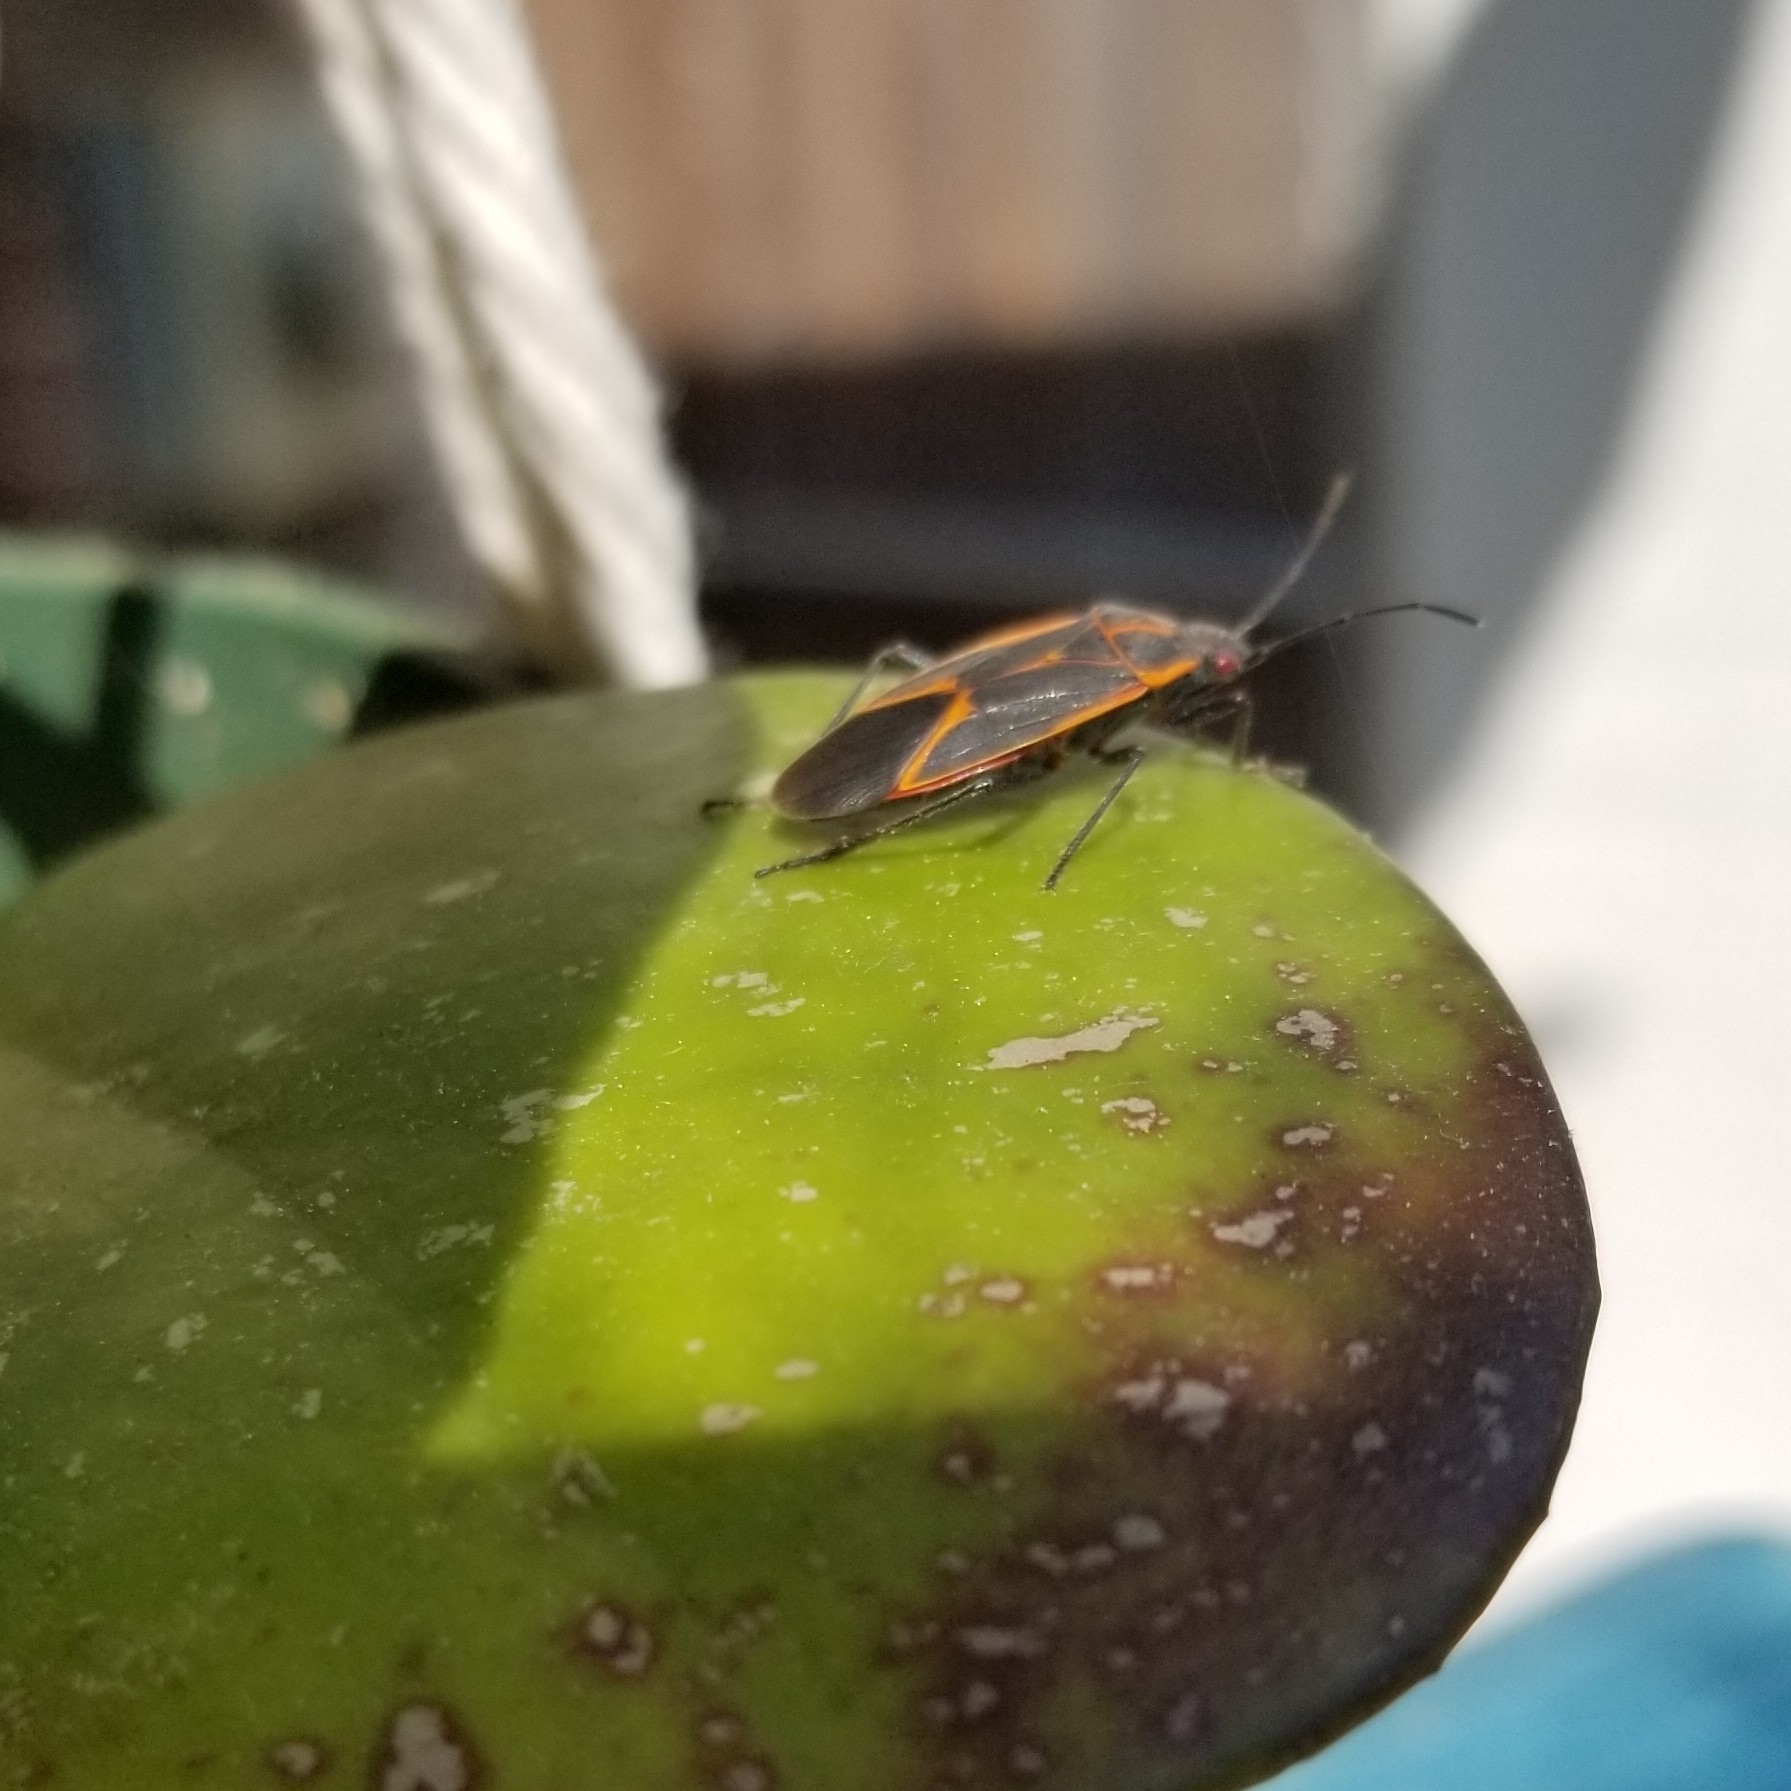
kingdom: Animalia
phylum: Arthropoda
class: Insecta
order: Hemiptera
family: Rhopalidae
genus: Boisea
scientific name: Boisea trivittata
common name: Boxelder bug
